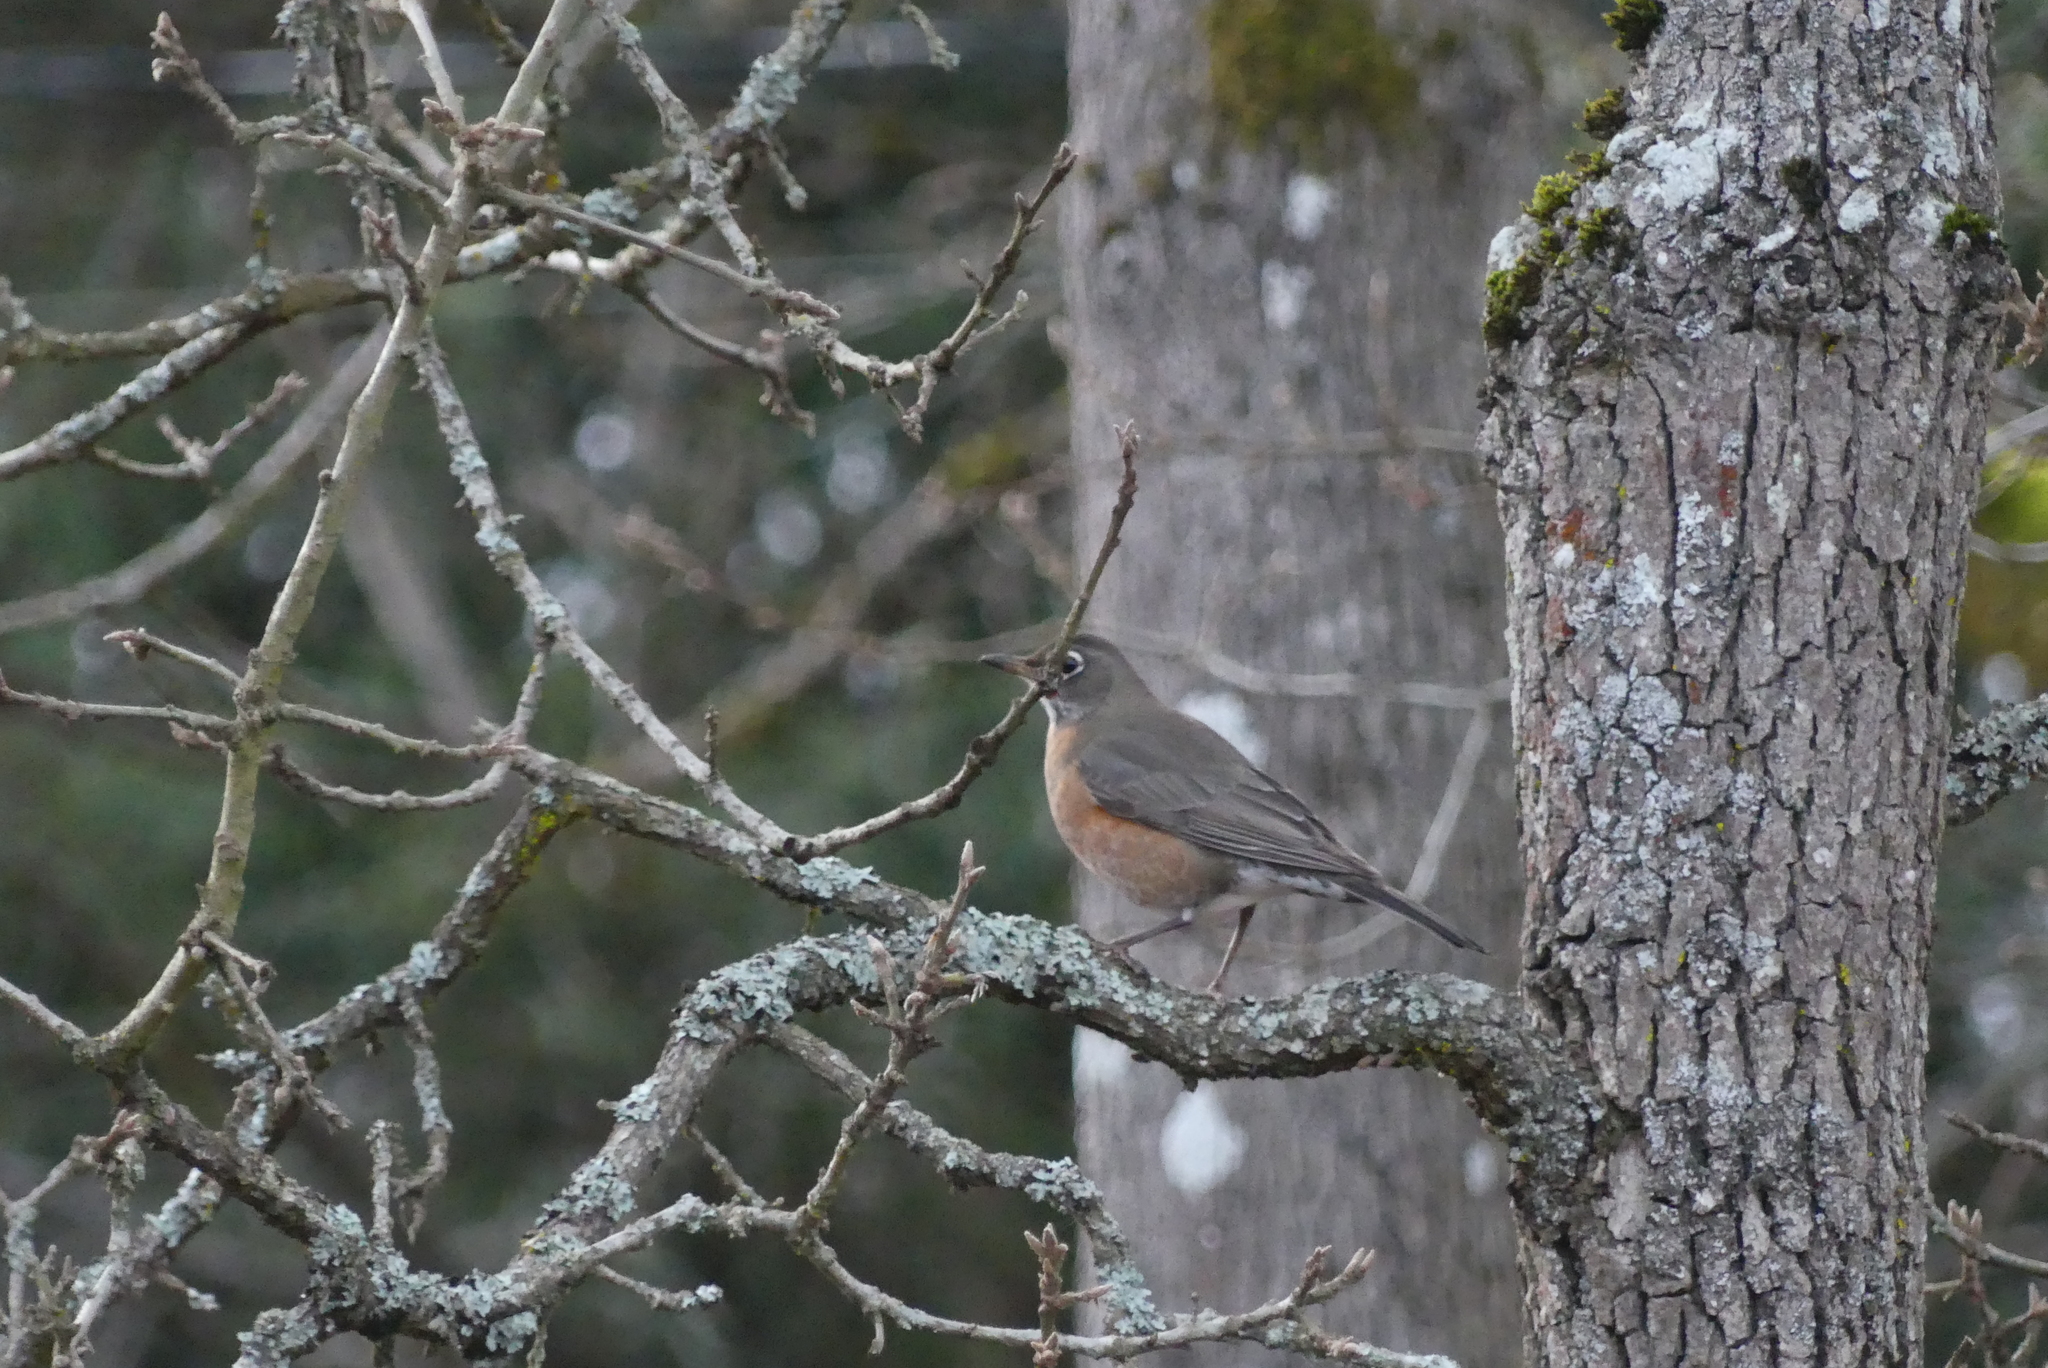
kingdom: Animalia
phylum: Chordata
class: Aves
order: Passeriformes
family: Turdidae
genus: Turdus
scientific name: Turdus migratorius
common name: American robin
